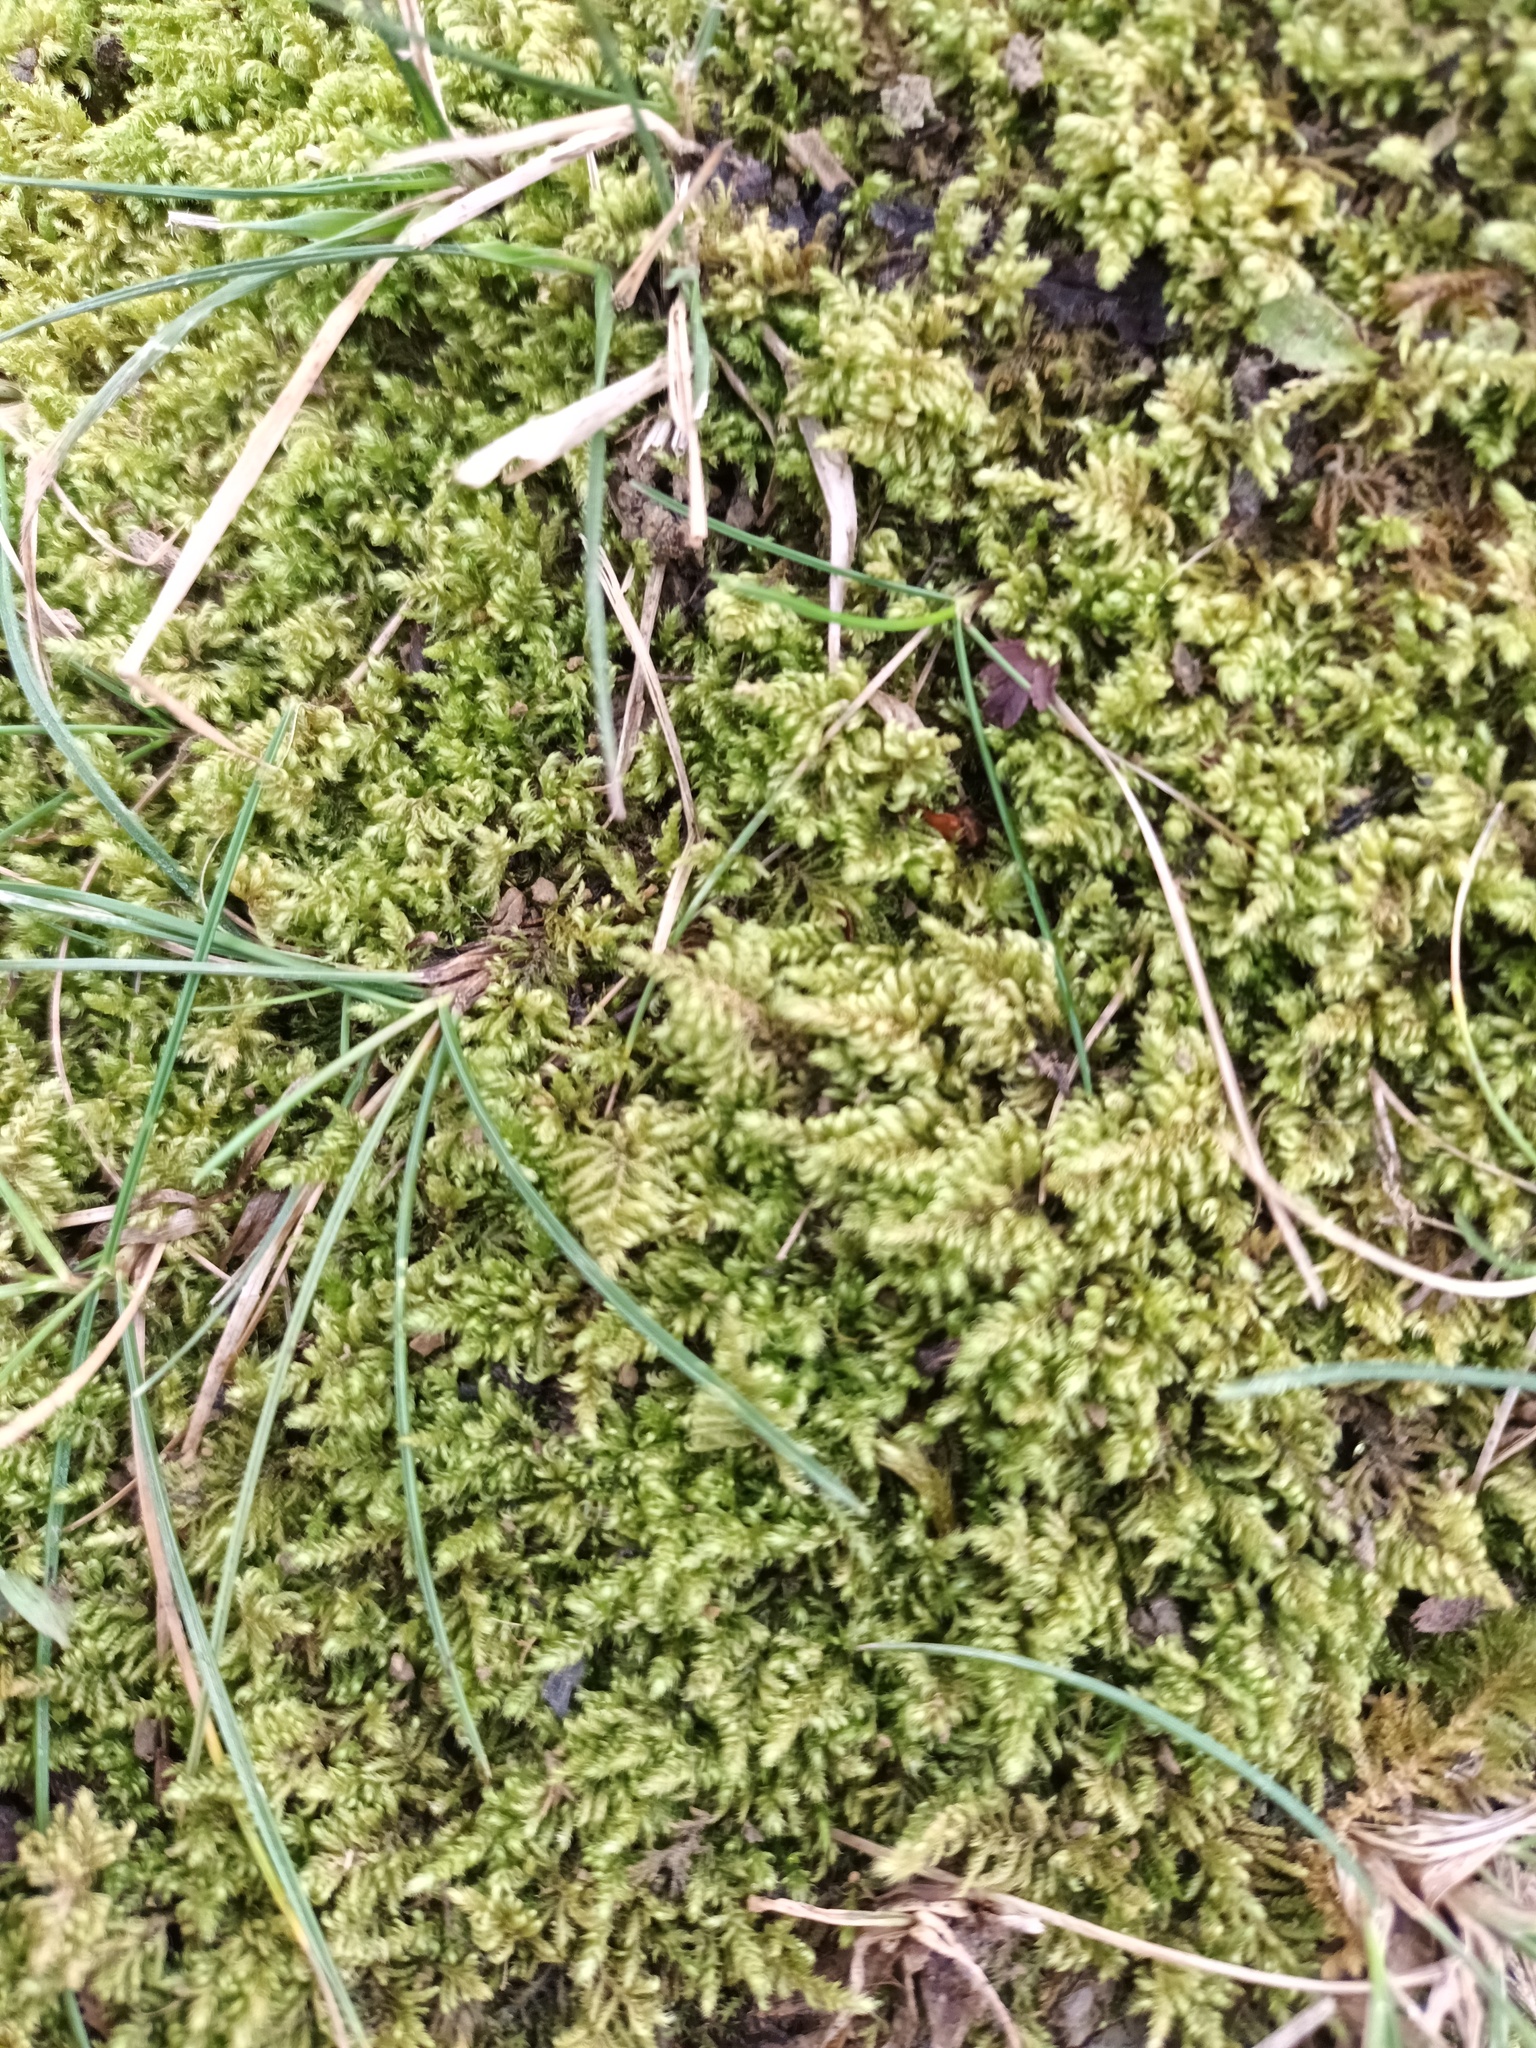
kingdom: Plantae
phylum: Bryophyta
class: Bryopsida
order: Hypnales
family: Myuriaceae
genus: Ctenidium
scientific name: Ctenidium molluscum
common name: Chalk comb-moss
